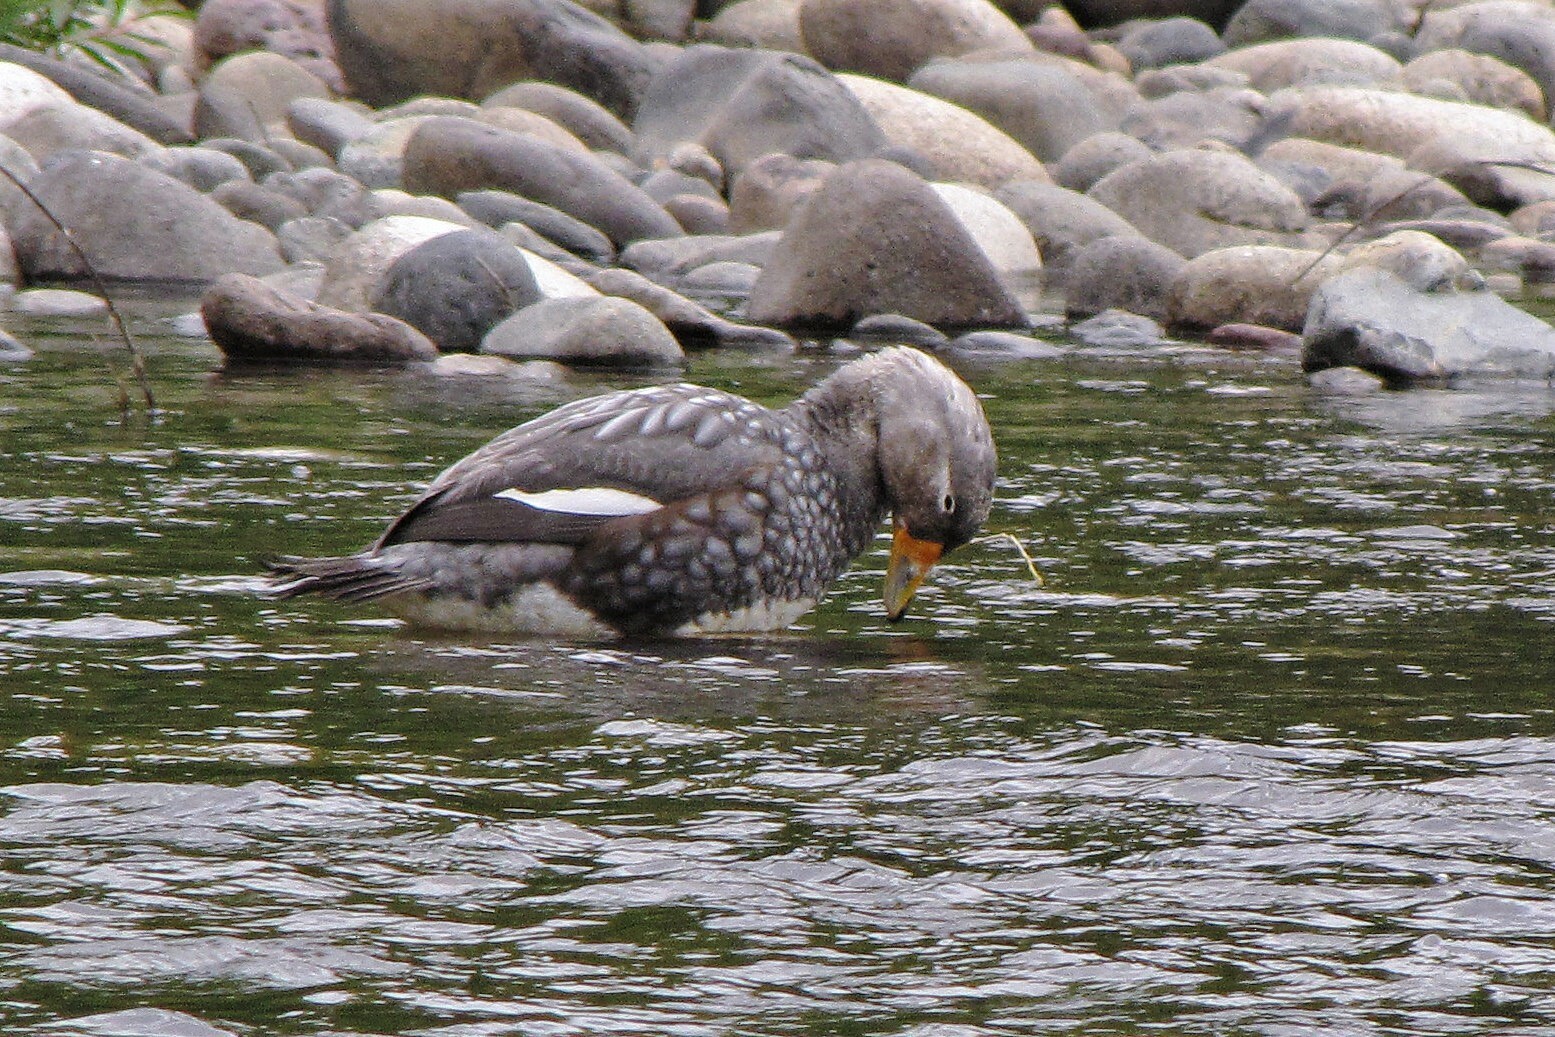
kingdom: Animalia
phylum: Chordata
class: Aves
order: Anseriformes
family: Anatidae
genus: Tachyeres
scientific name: Tachyeres patachonicus
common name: Flying steamer duck
